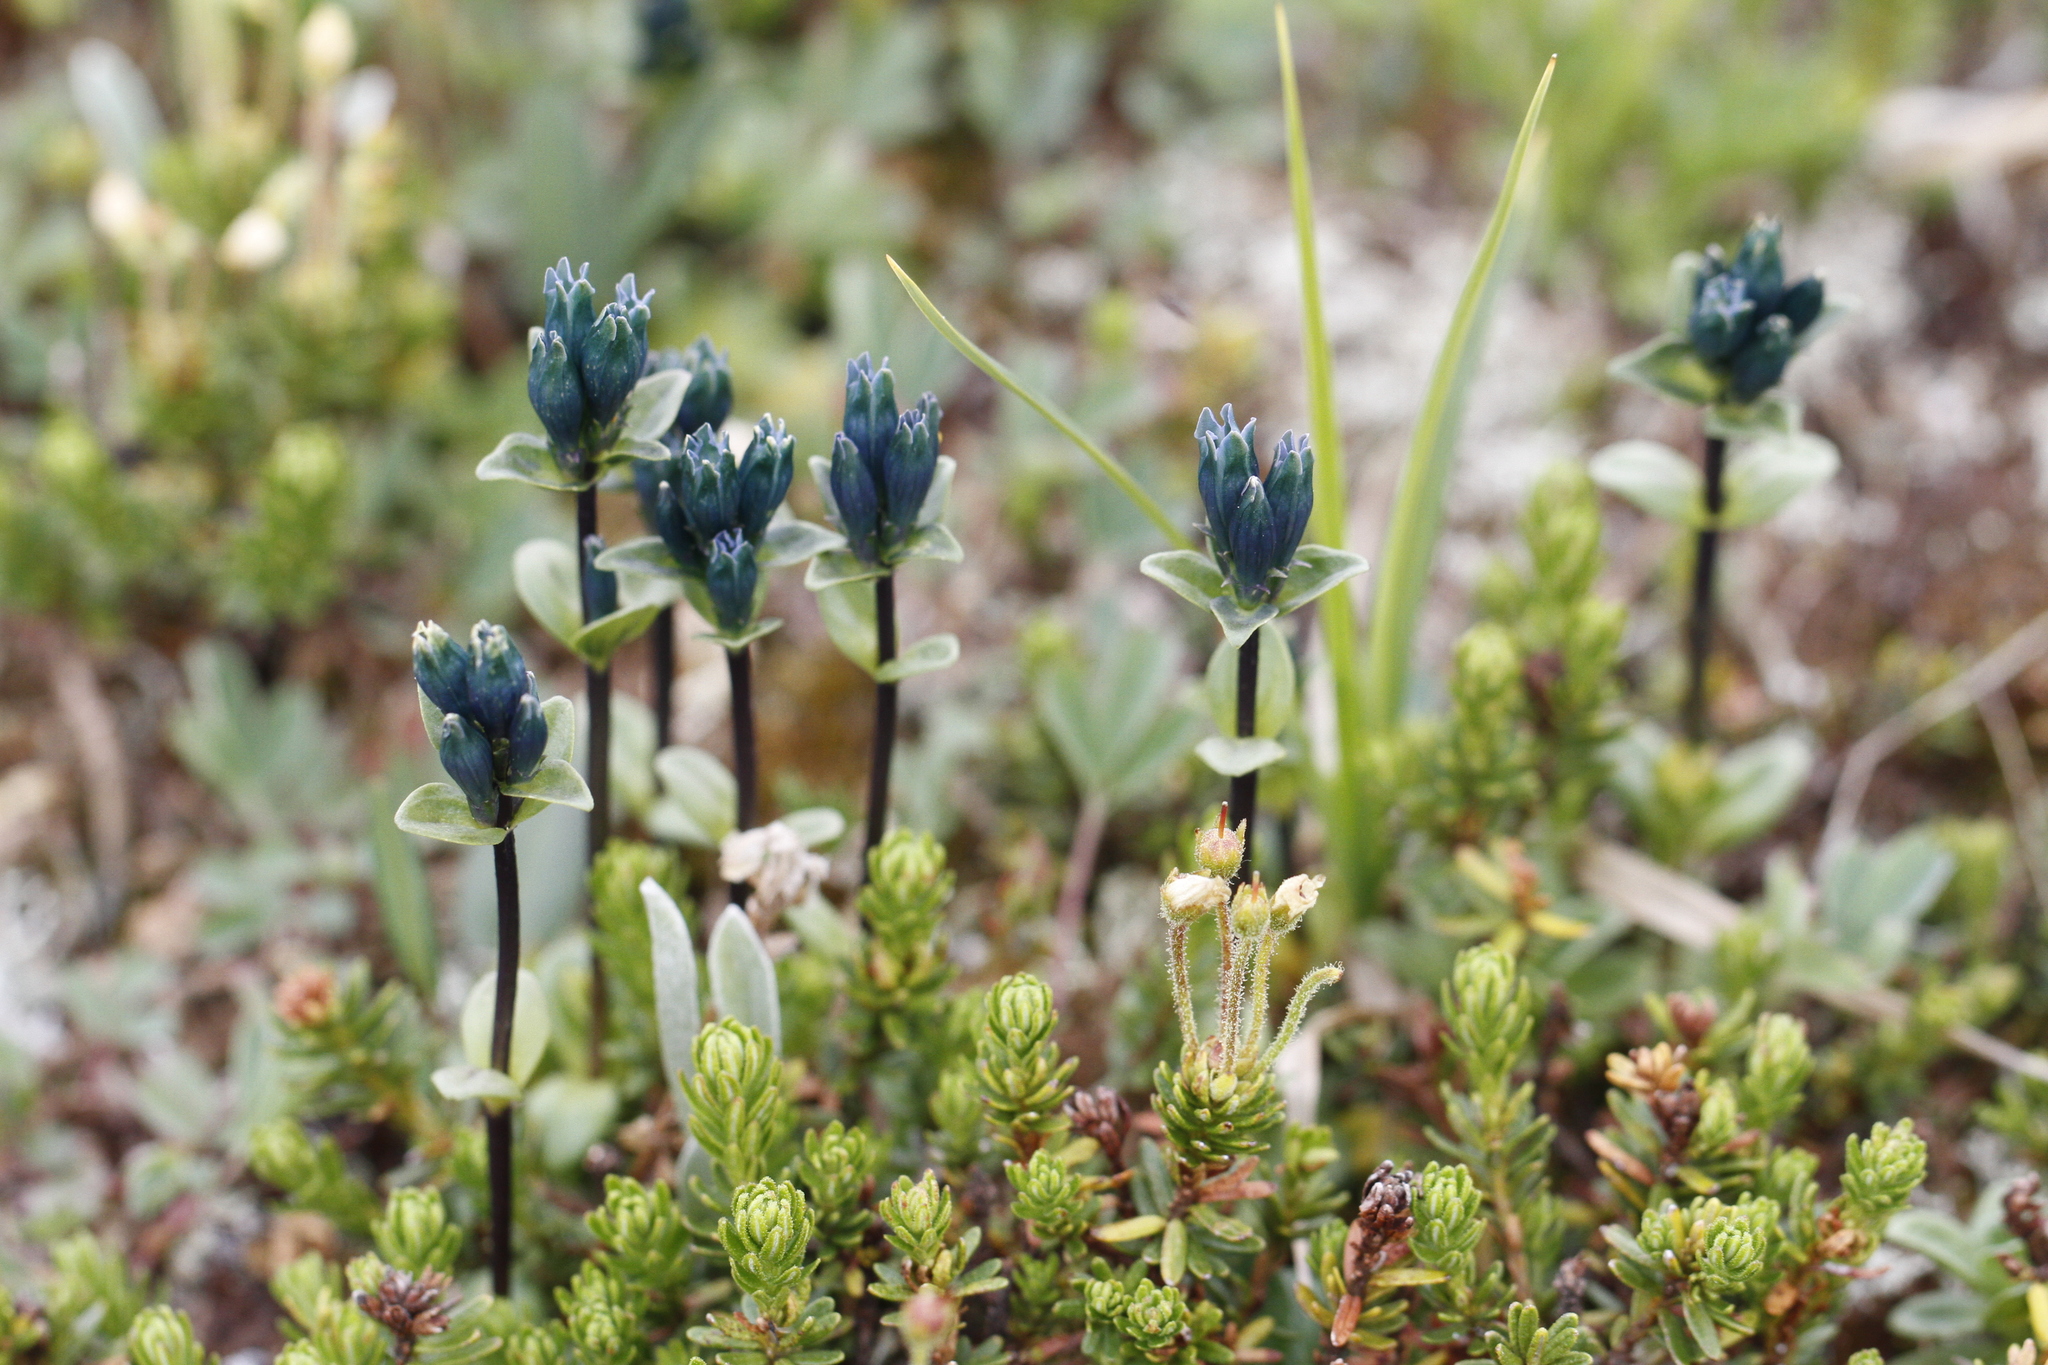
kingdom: Plantae
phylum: Tracheophyta
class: Magnoliopsida
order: Gentianales
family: Gentianaceae
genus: Gentiana
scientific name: Gentiana glauca
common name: Alpine gentian
